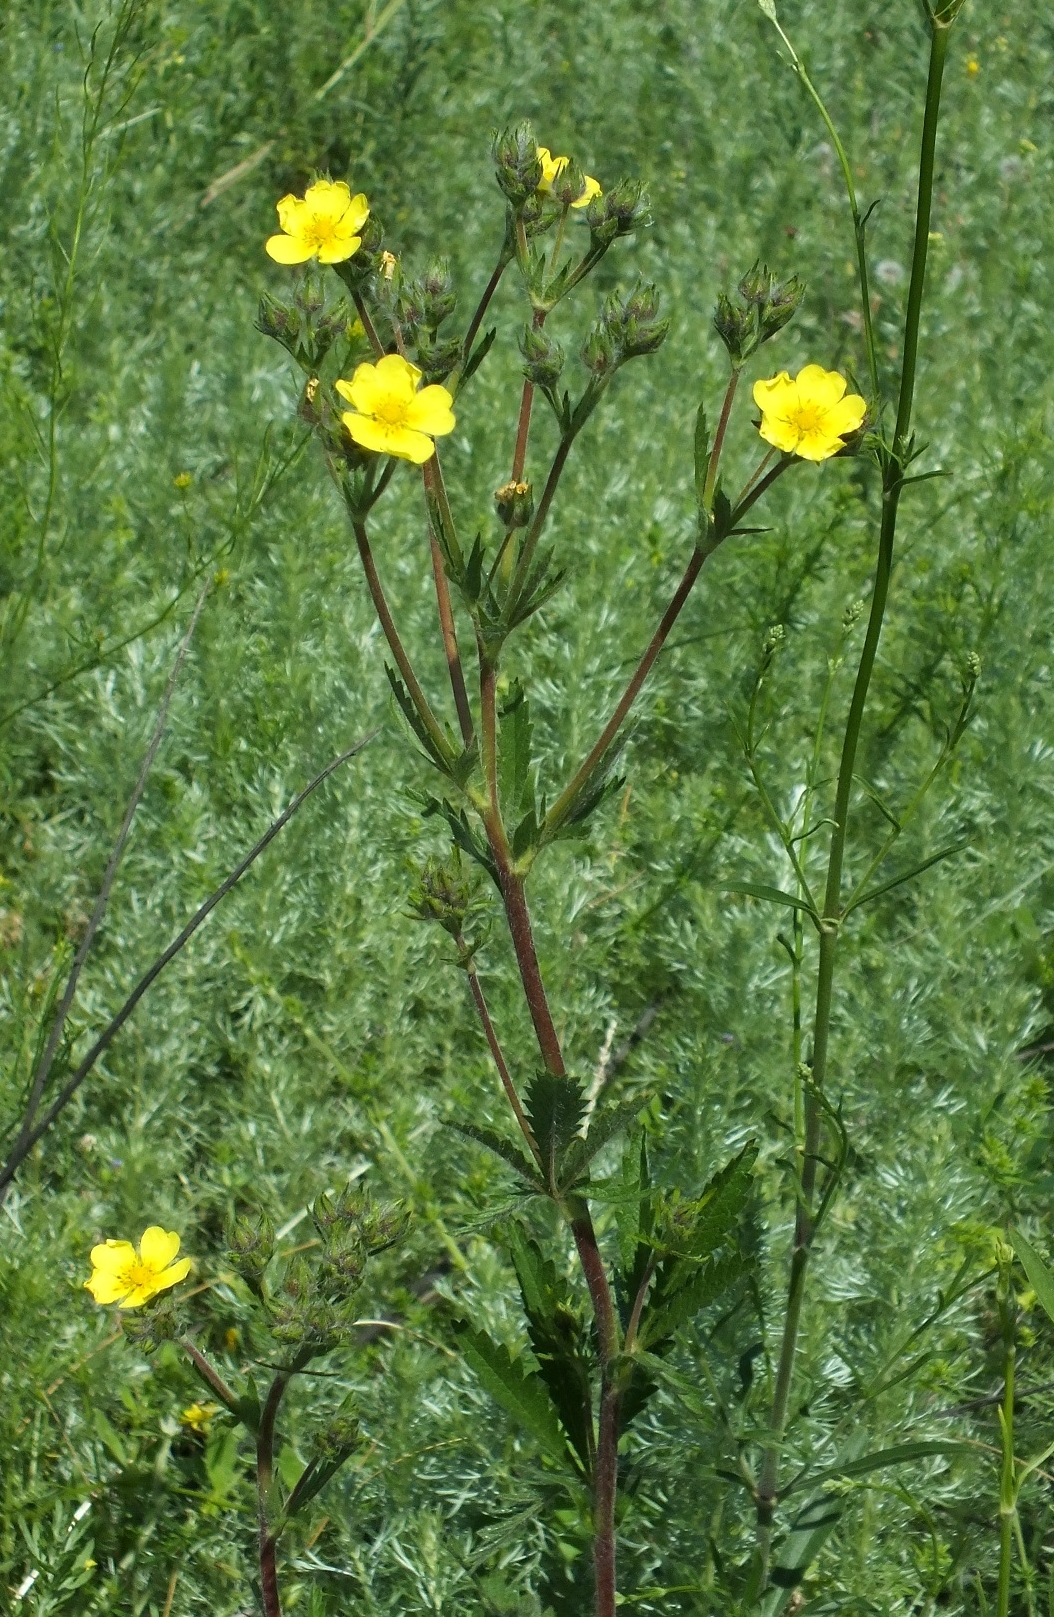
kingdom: Plantae
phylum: Tracheophyta
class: Magnoliopsida
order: Rosales
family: Rosaceae
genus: Potentilla
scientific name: Potentilla astracanica
